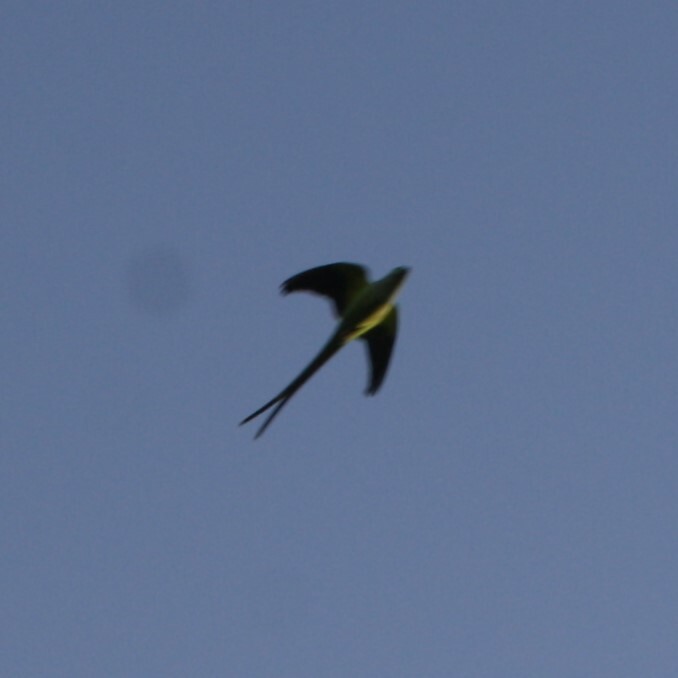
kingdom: Animalia
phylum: Chordata
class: Aves
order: Psittaciformes
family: Psittacidae
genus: Psittacula
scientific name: Psittacula krameri
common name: Rose-ringed parakeet
